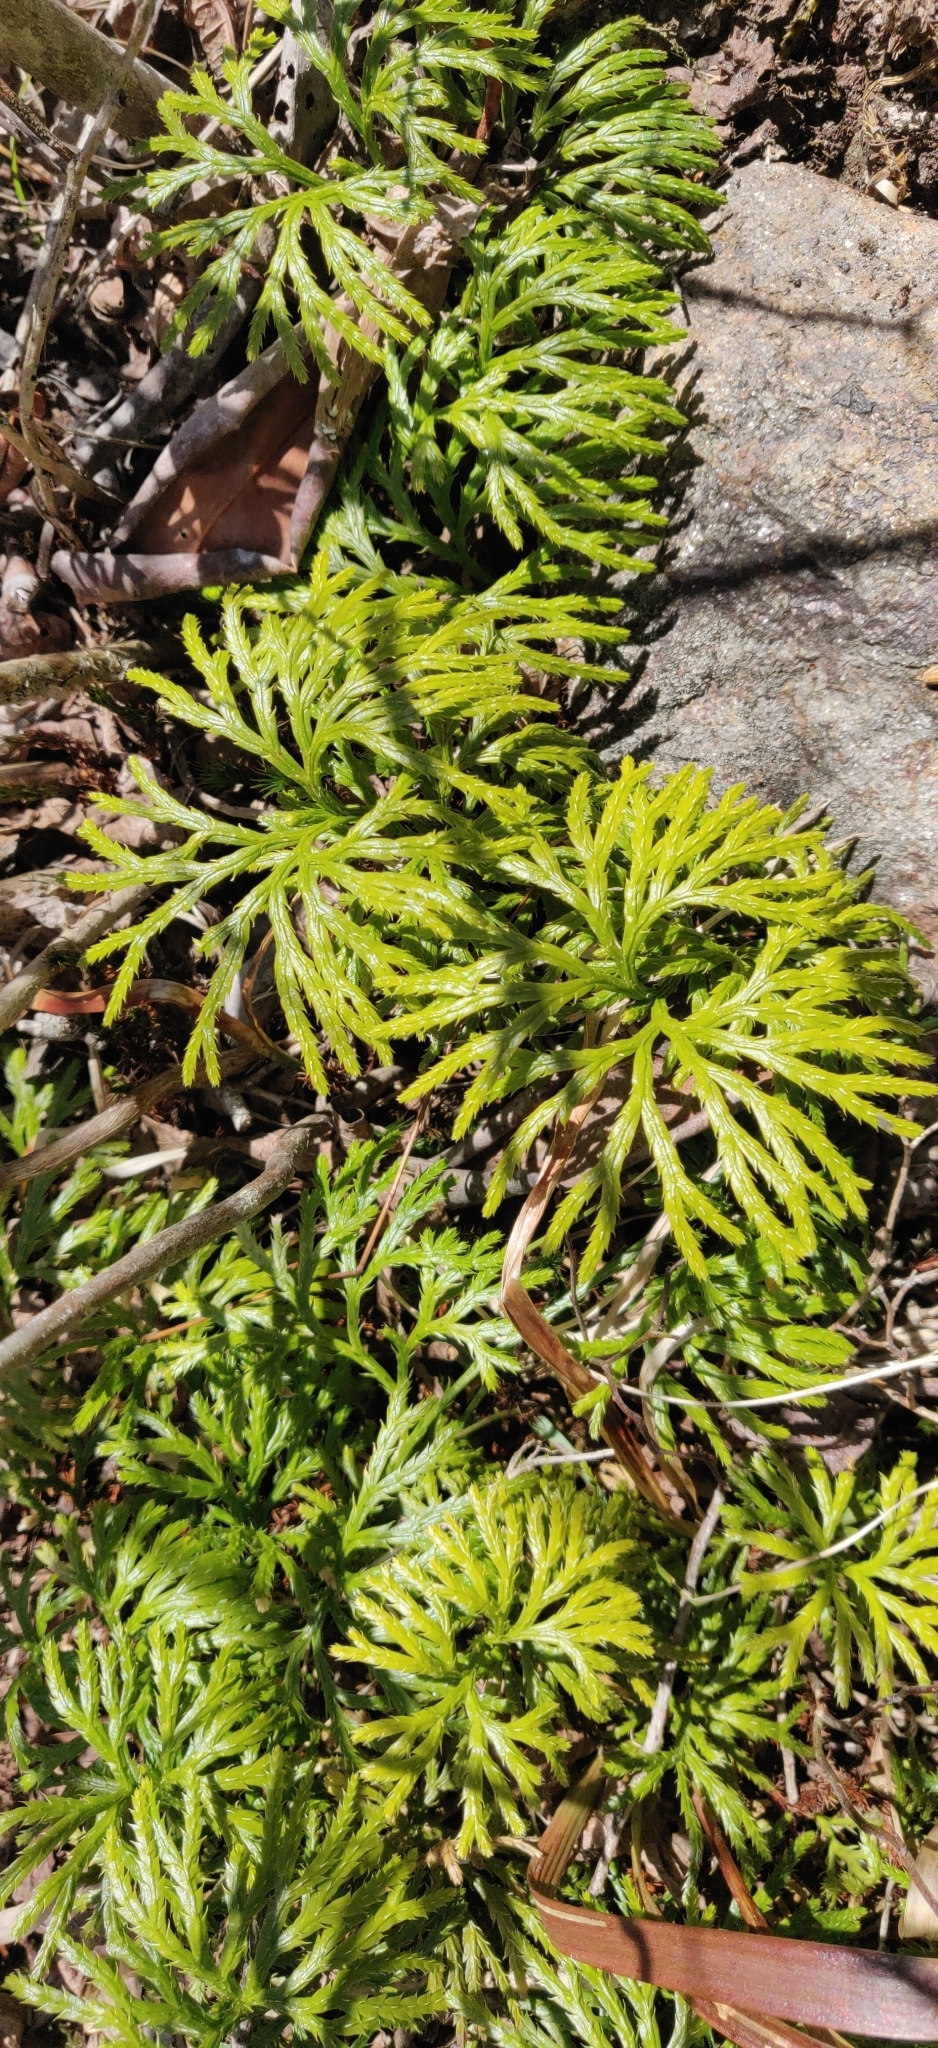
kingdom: Plantae
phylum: Tracheophyta
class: Lycopodiopsida
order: Lycopodiales
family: Lycopodiaceae
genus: Diphasiastrum
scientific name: Diphasiastrum digitatum
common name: Southern running-pine
